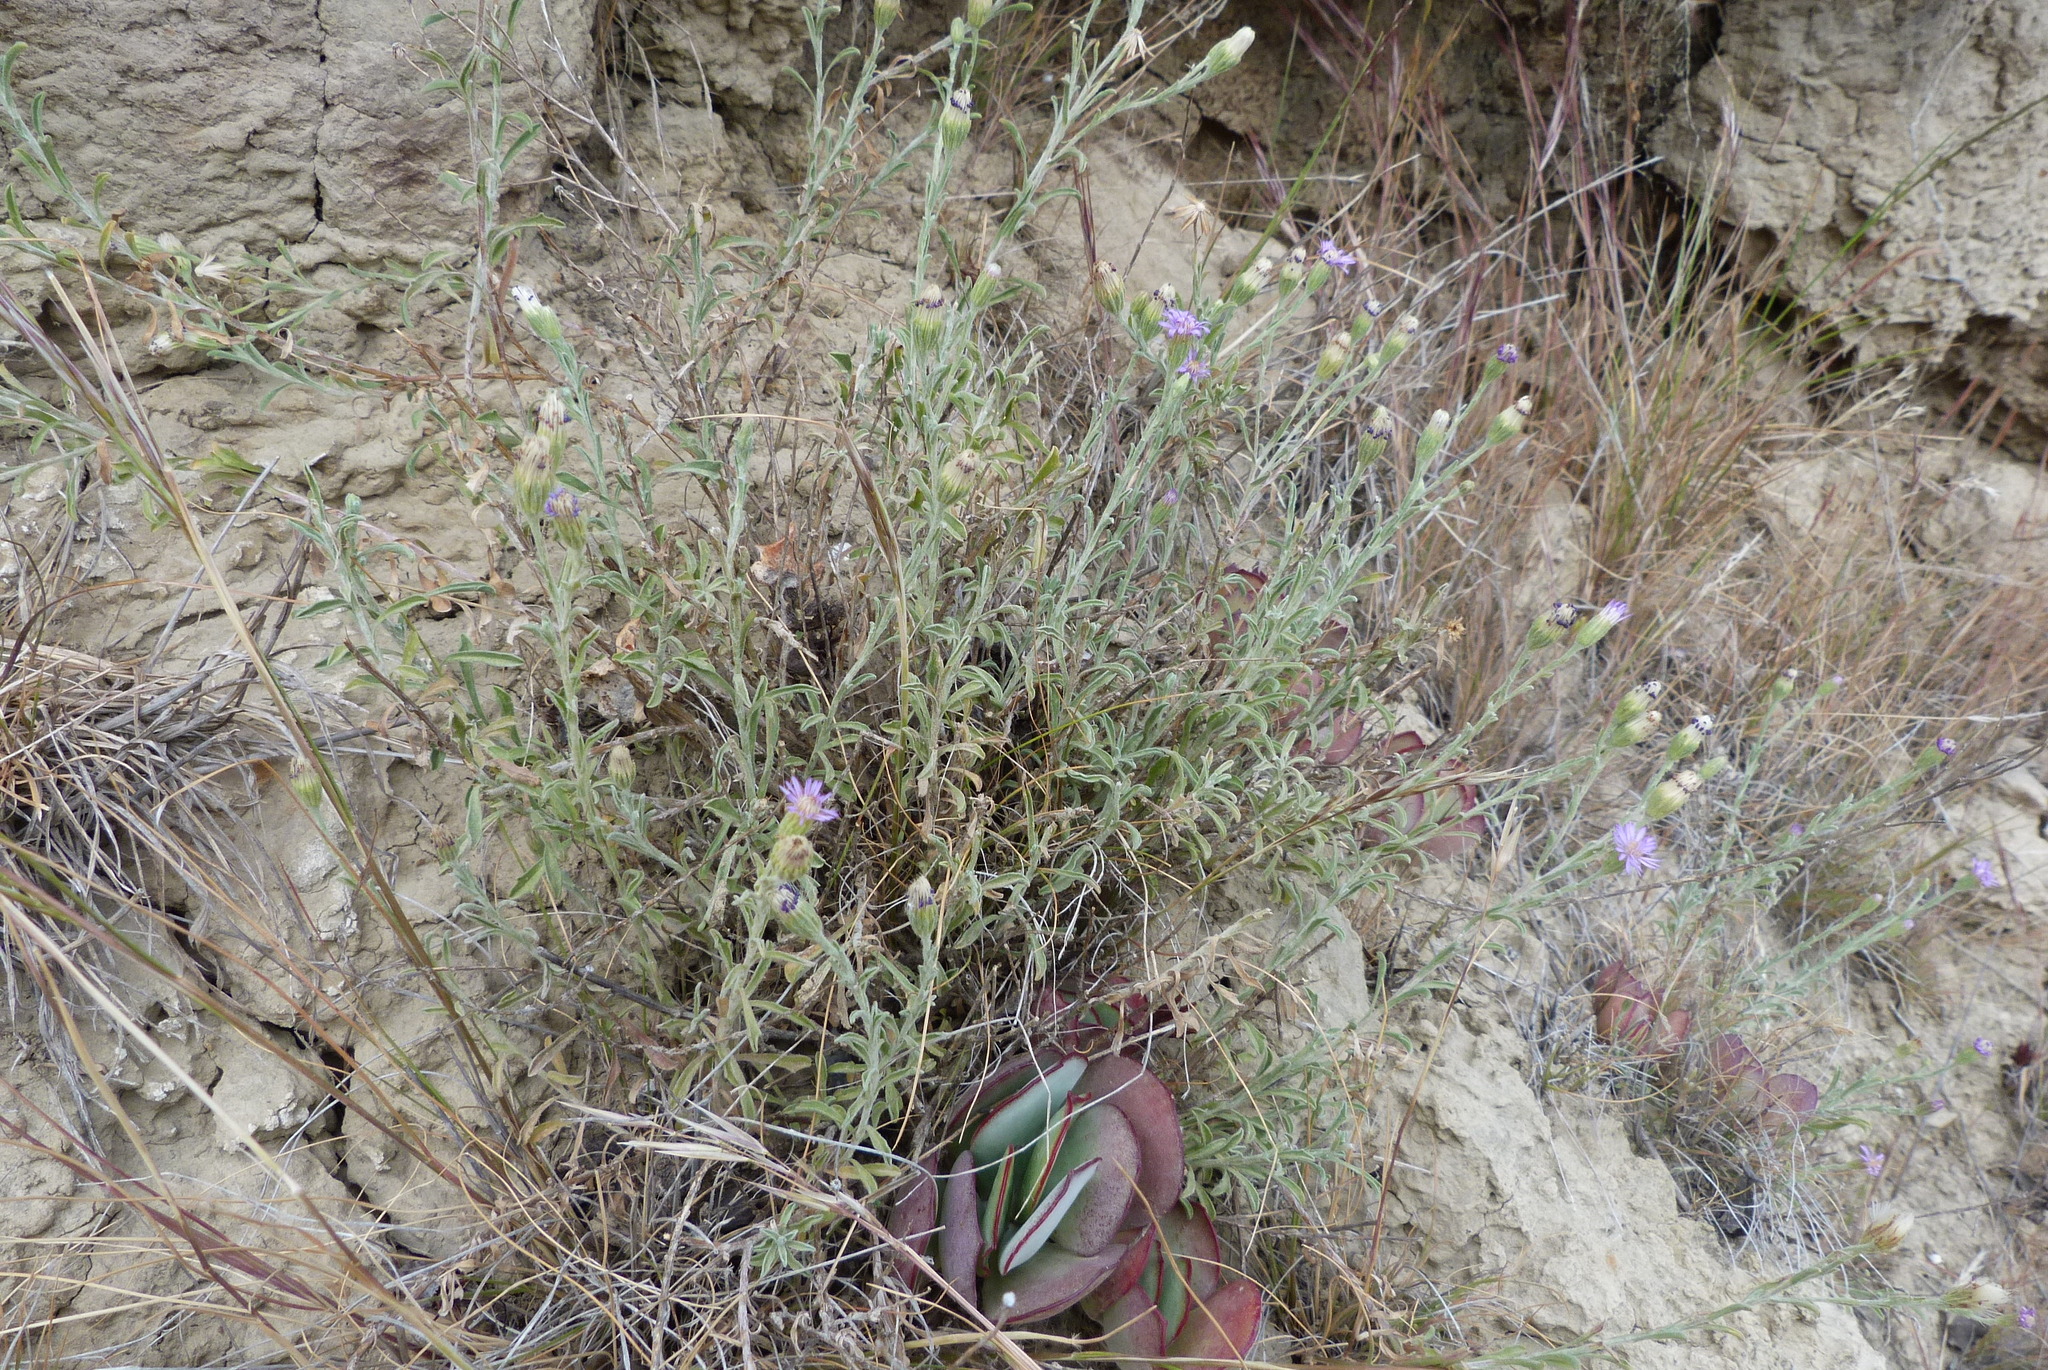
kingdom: Plantae
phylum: Tracheophyta
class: Magnoliopsida
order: Asterales
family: Asteraceae
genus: Vittadinia
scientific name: Vittadinia gracilis
